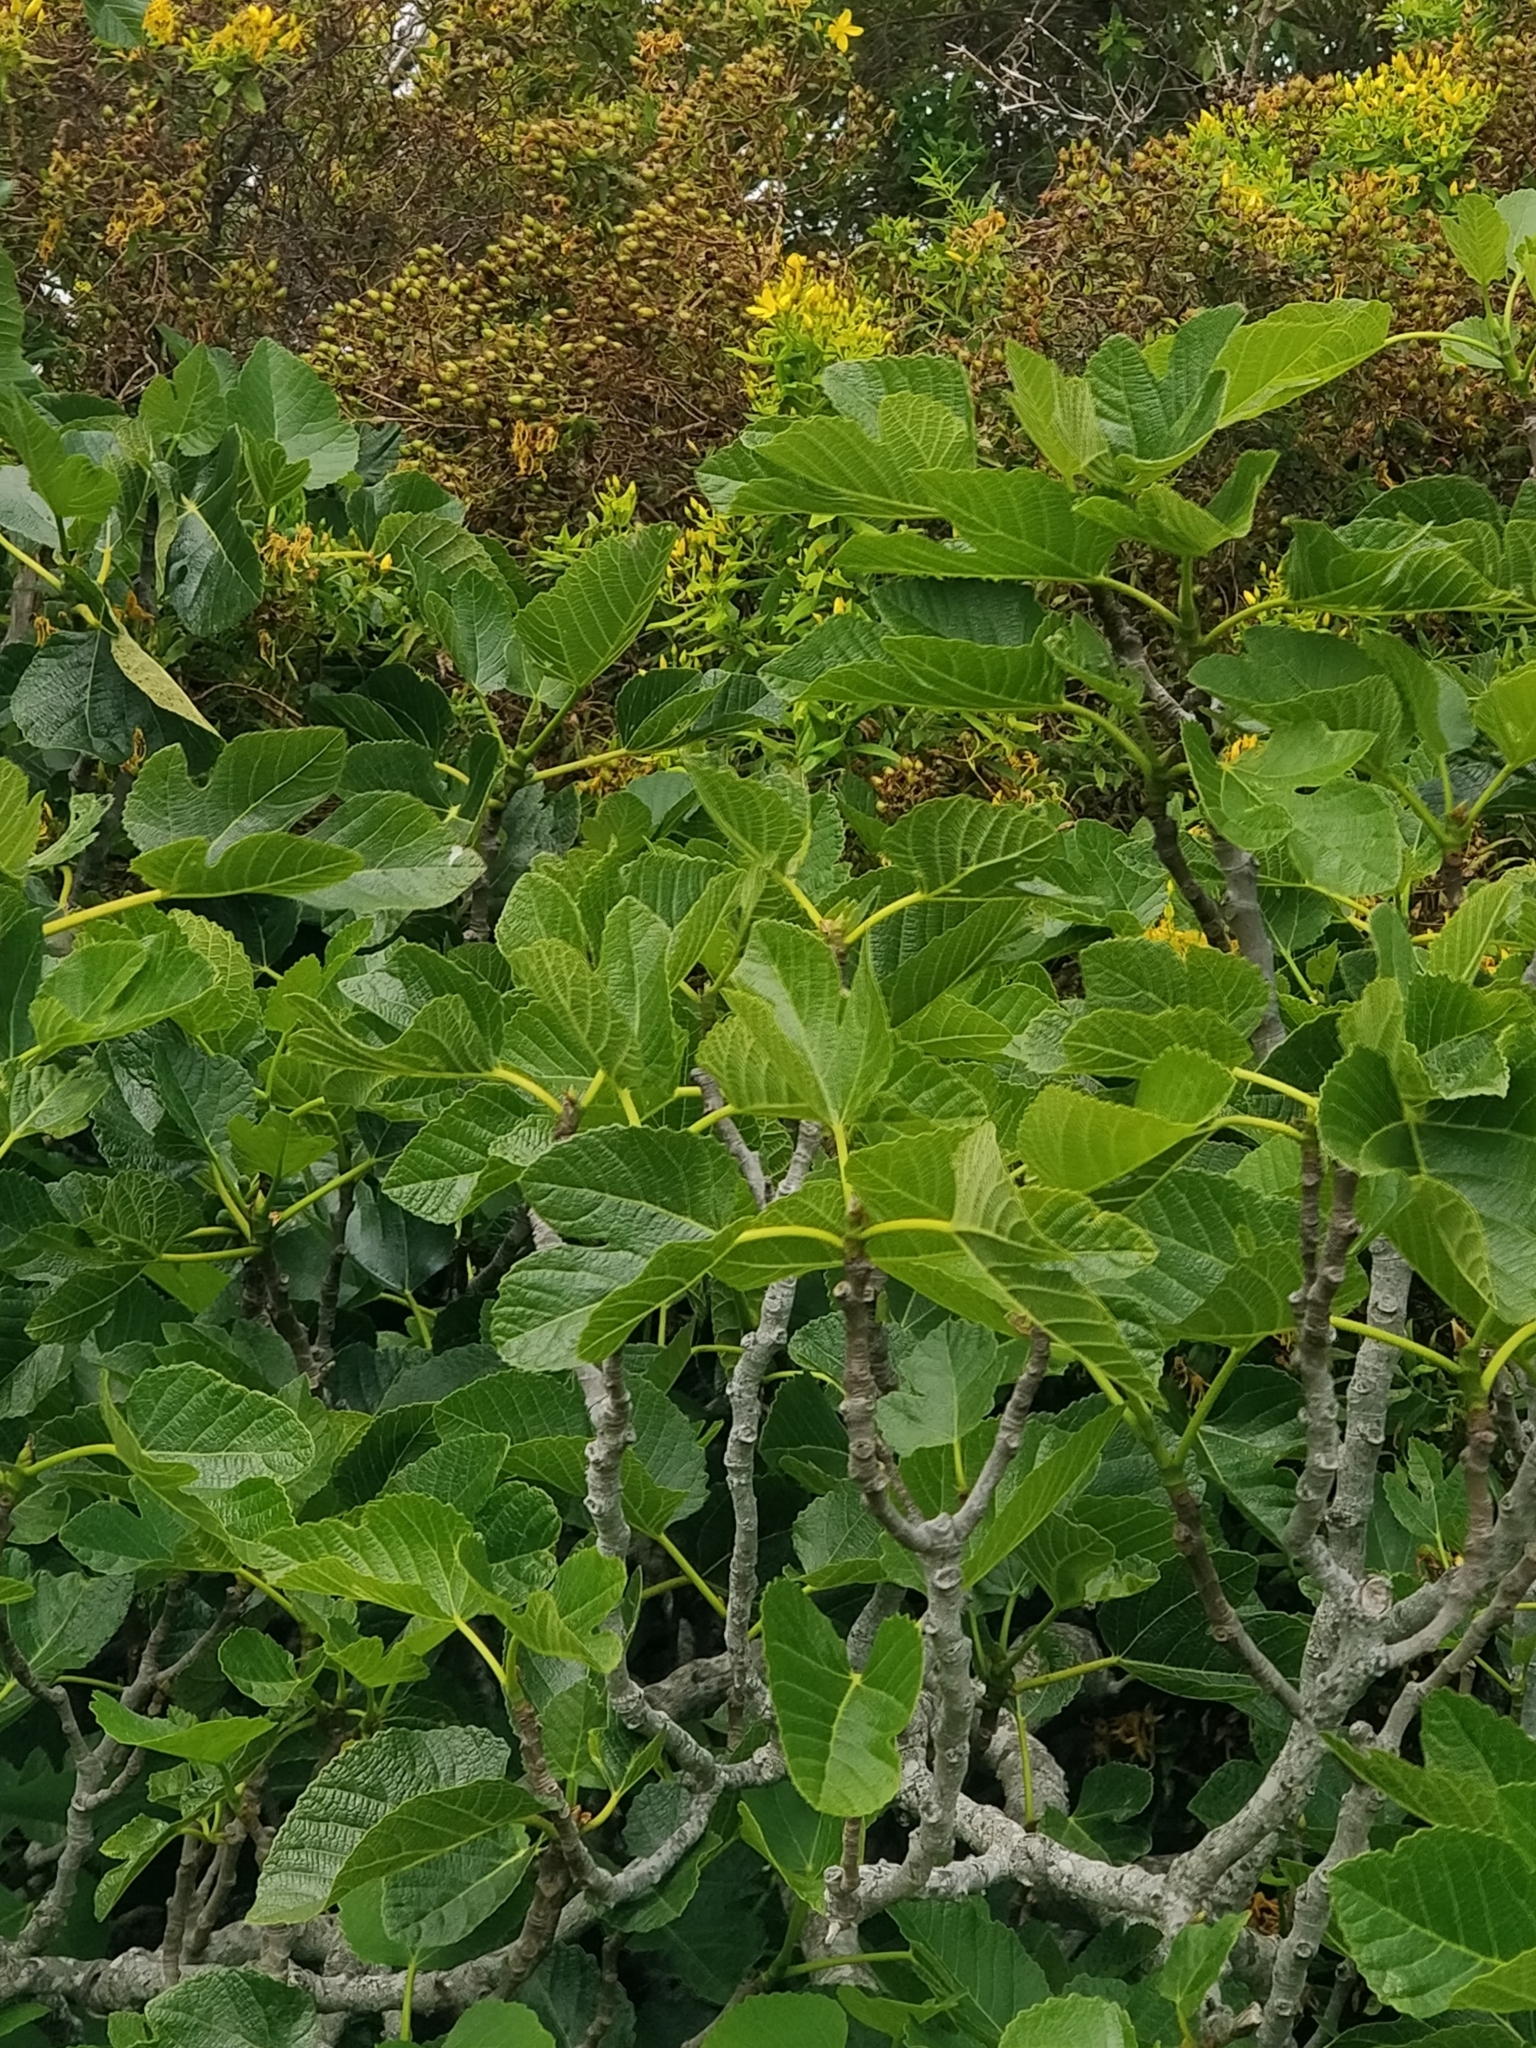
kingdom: Plantae
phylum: Tracheophyta
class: Magnoliopsida
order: Rosales
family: Moraceae
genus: Ficus
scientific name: Ficus carica
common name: Fig
